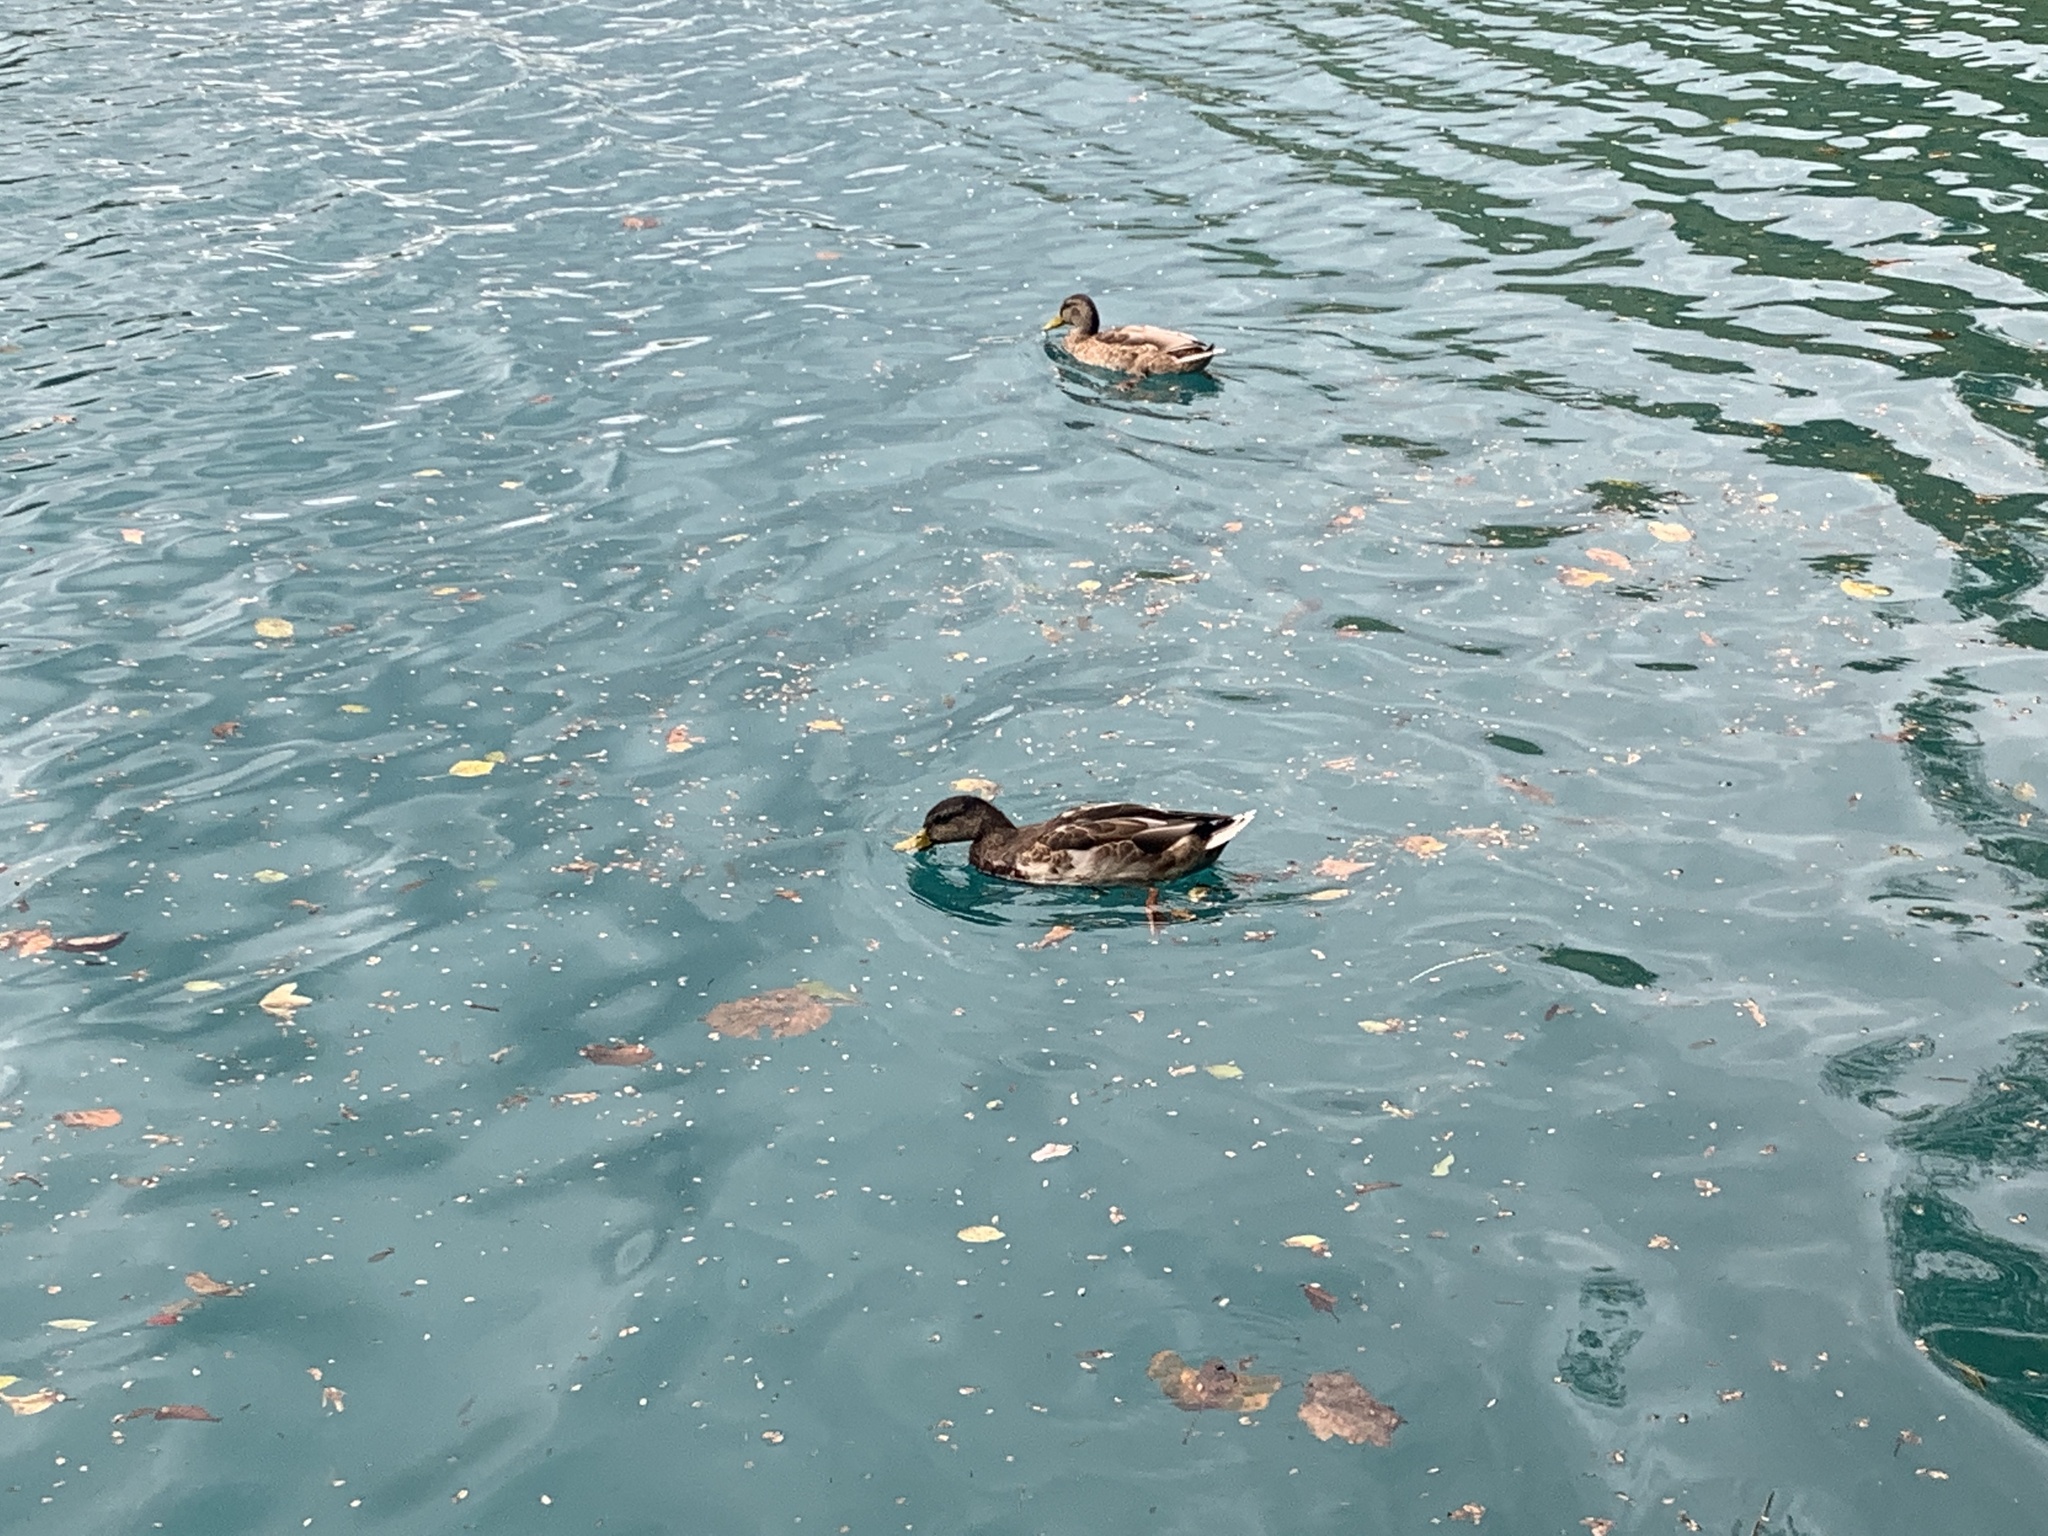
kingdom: Animalia
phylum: Chordata
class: Aves
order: Anseriformes
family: Anatidae
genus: Anas
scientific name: Anas platyrhynchos
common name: Mallard
